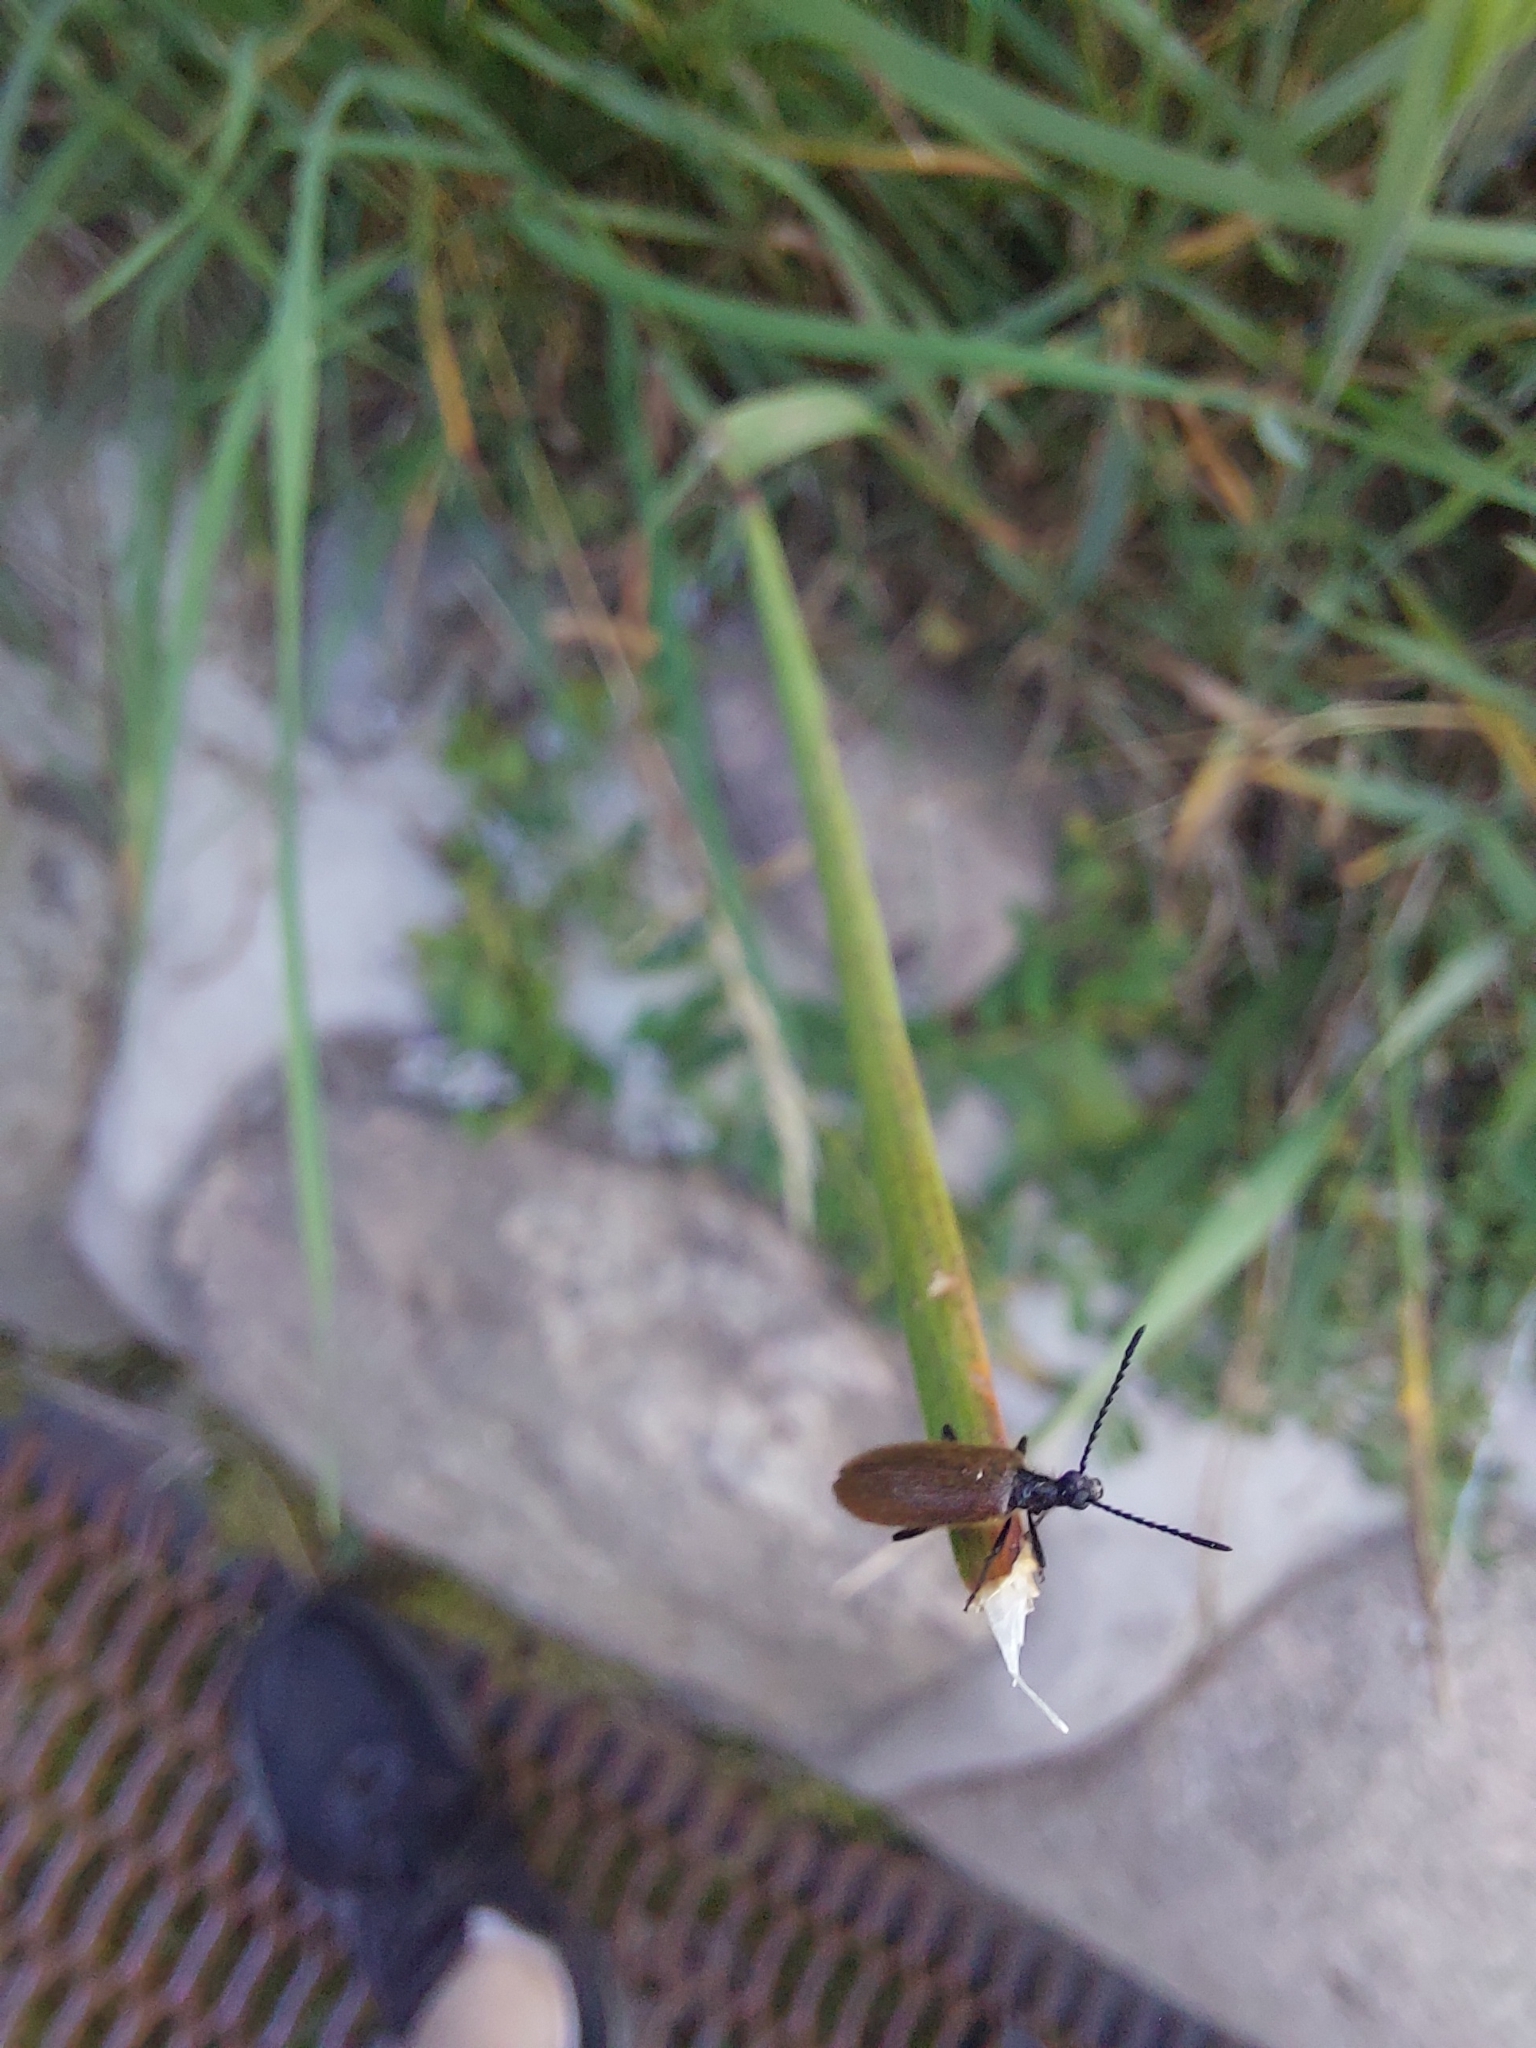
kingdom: Animalia
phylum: Arthropoda
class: Insecta
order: Coleoptera
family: Tenebrionidae
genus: Lagria
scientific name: Lagria hirta
